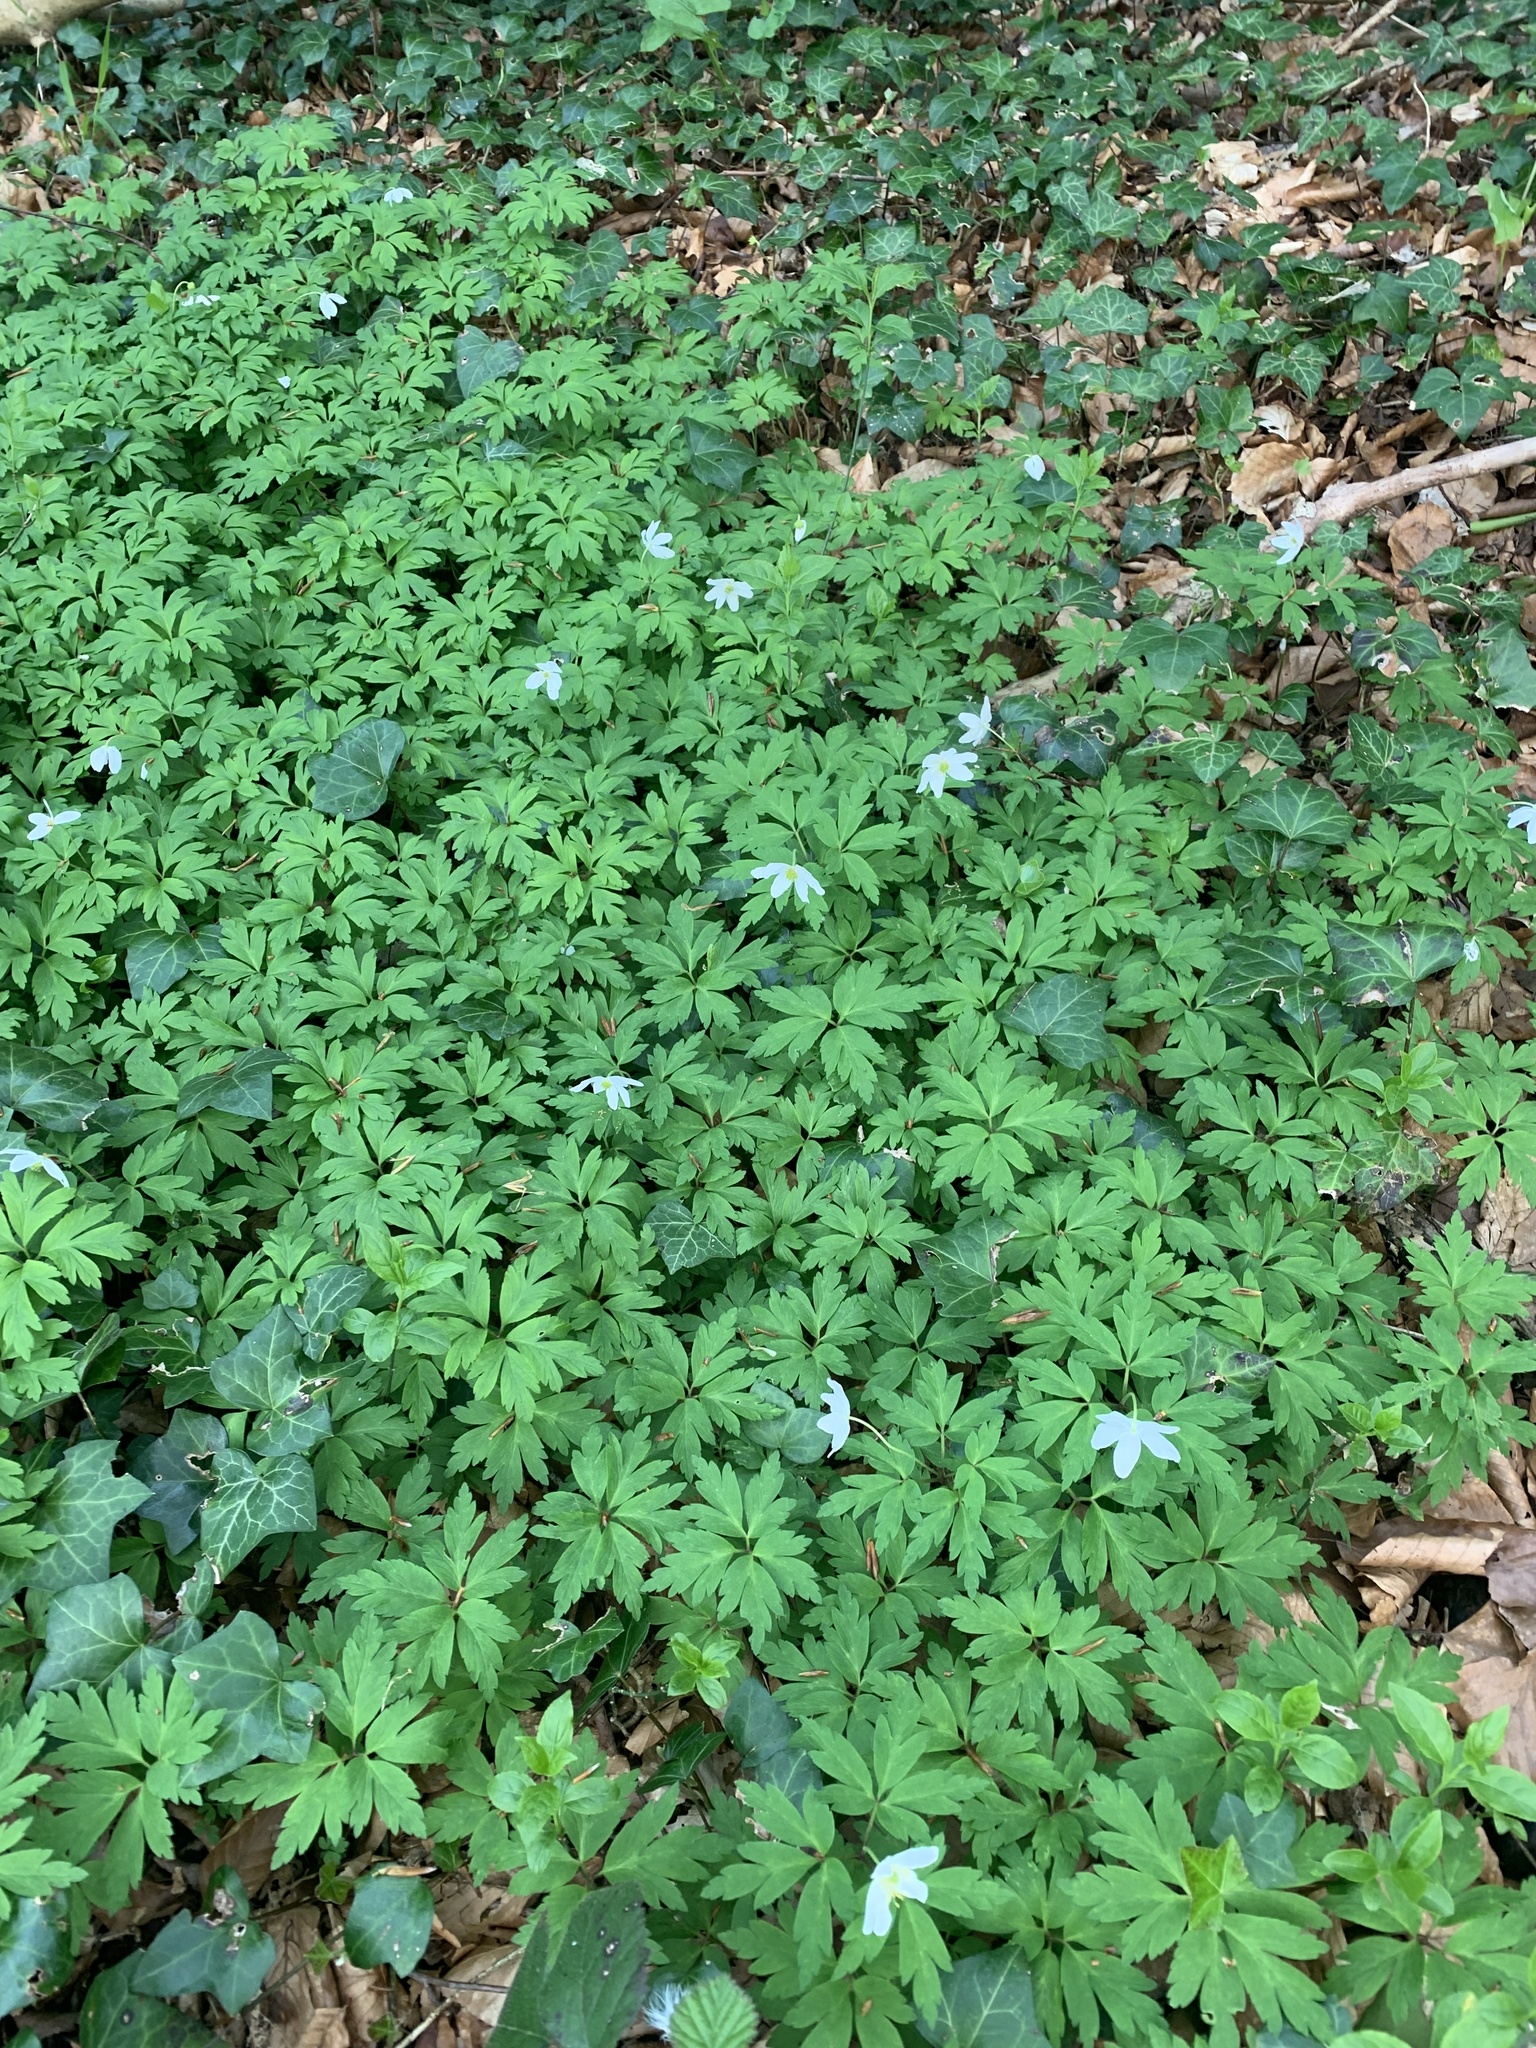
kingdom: Plantae
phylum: Tracheophyta
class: Magnoliopsida
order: Ranunculales
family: Ranunculaceae
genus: Anemone
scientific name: Anemone nemorosa
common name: Wood anemone
